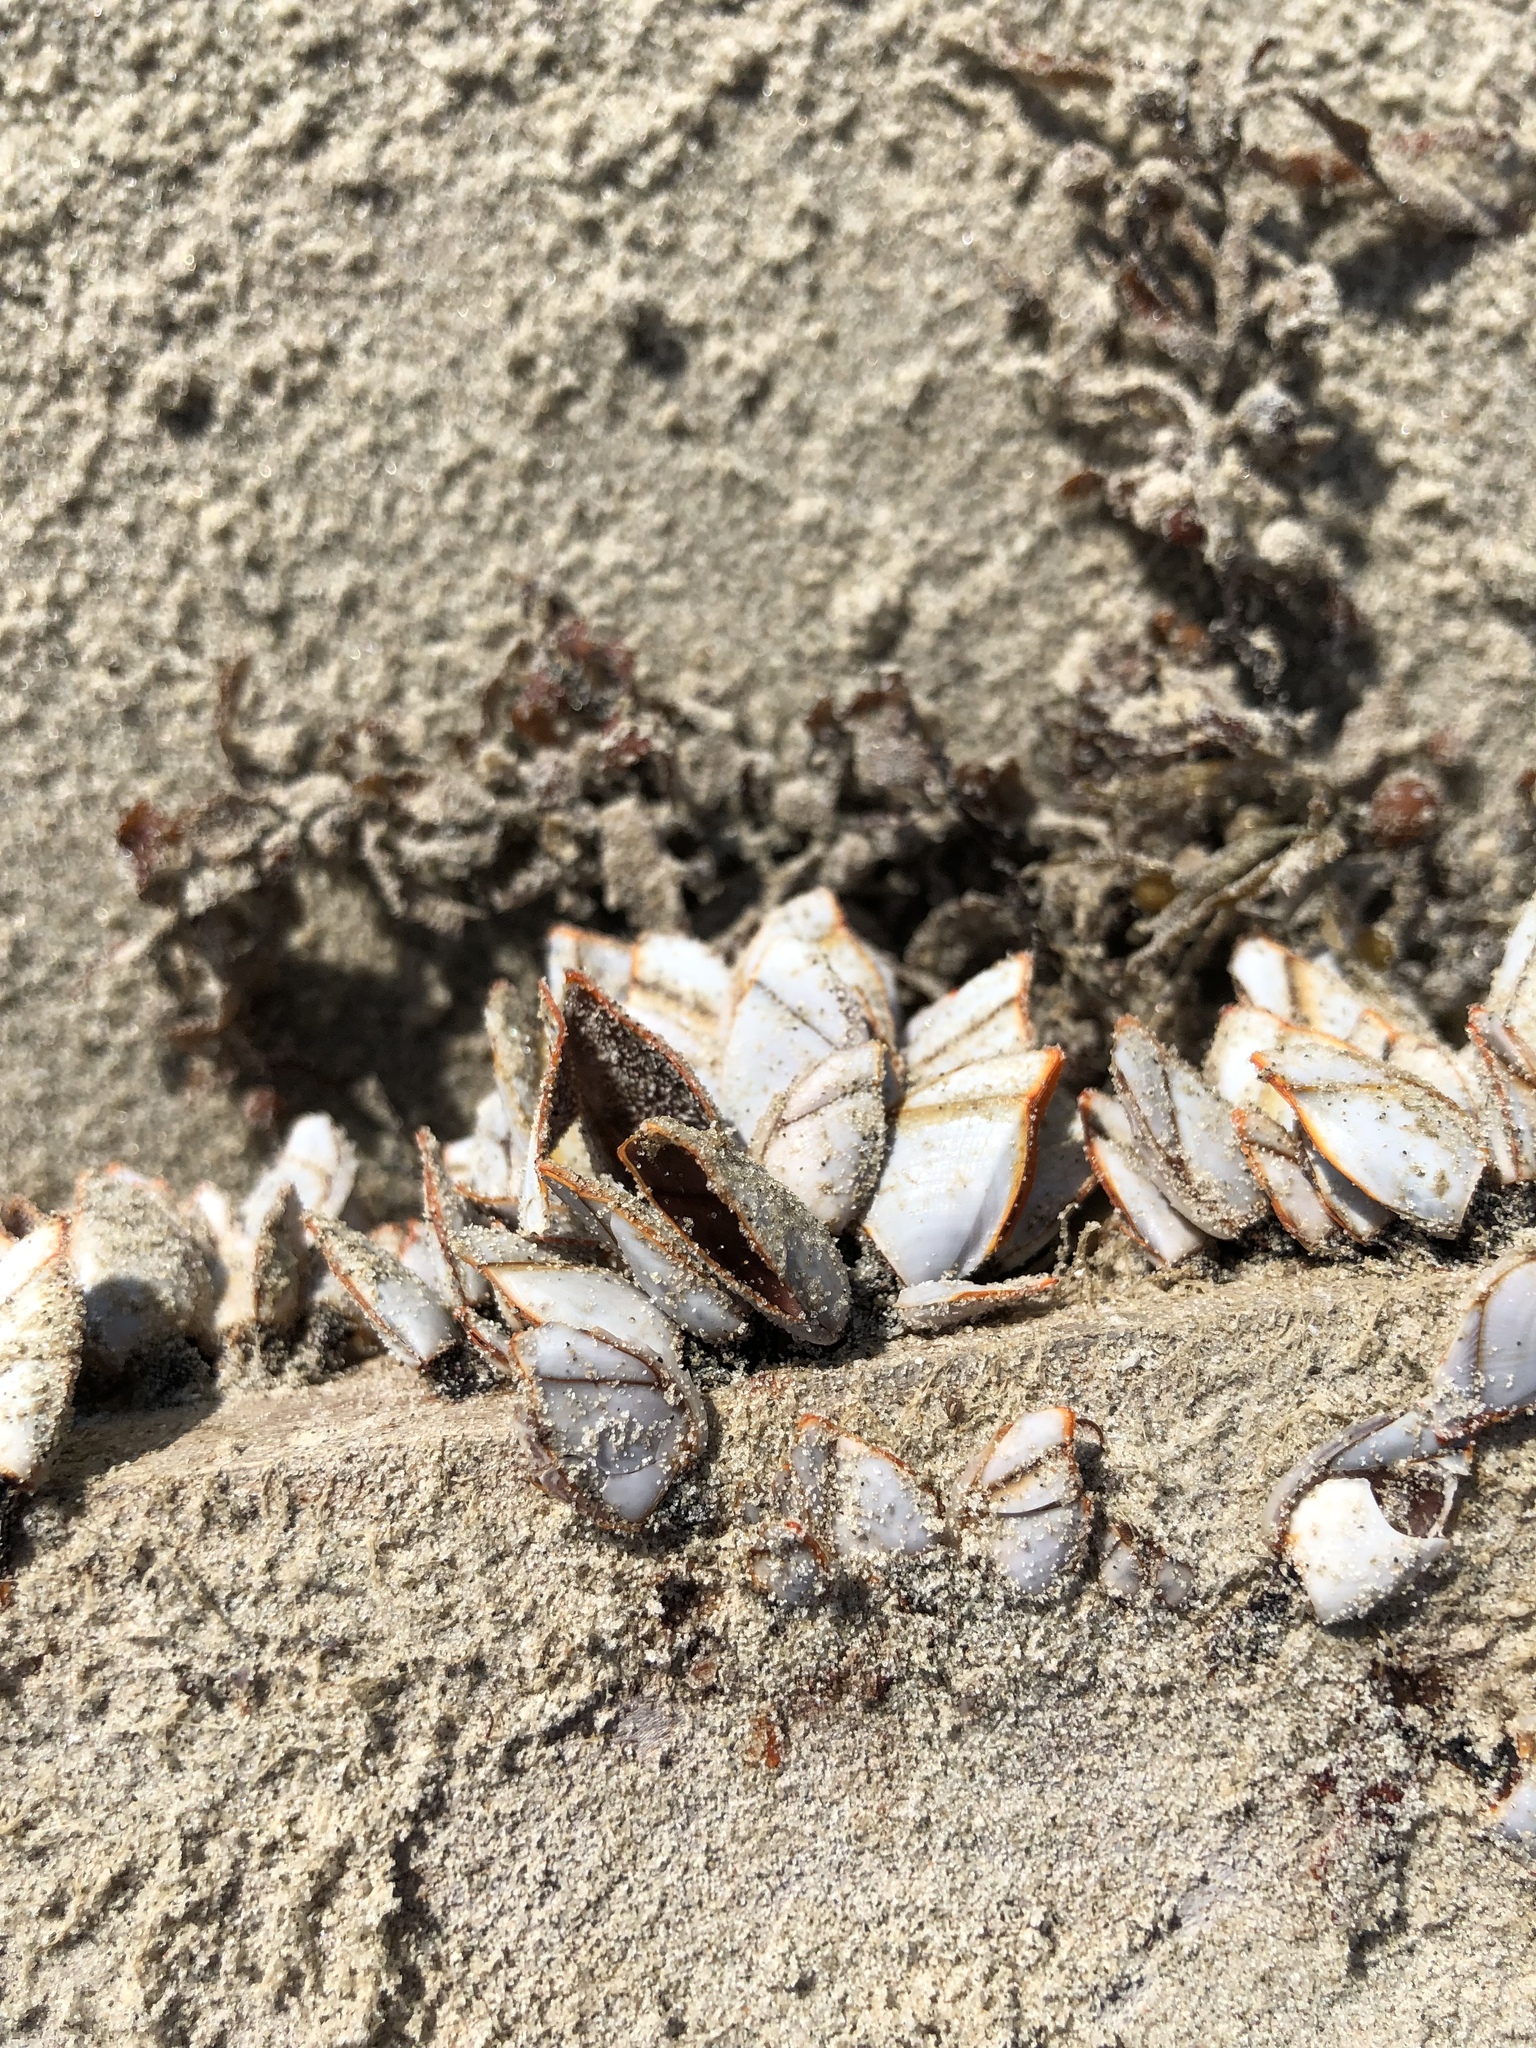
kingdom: Animalia
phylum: Arthropoda
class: Maxillopoda
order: Pedunculata
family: Lepadidae
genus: Lepas
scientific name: Lepas anserifera
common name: Goose barnacle
